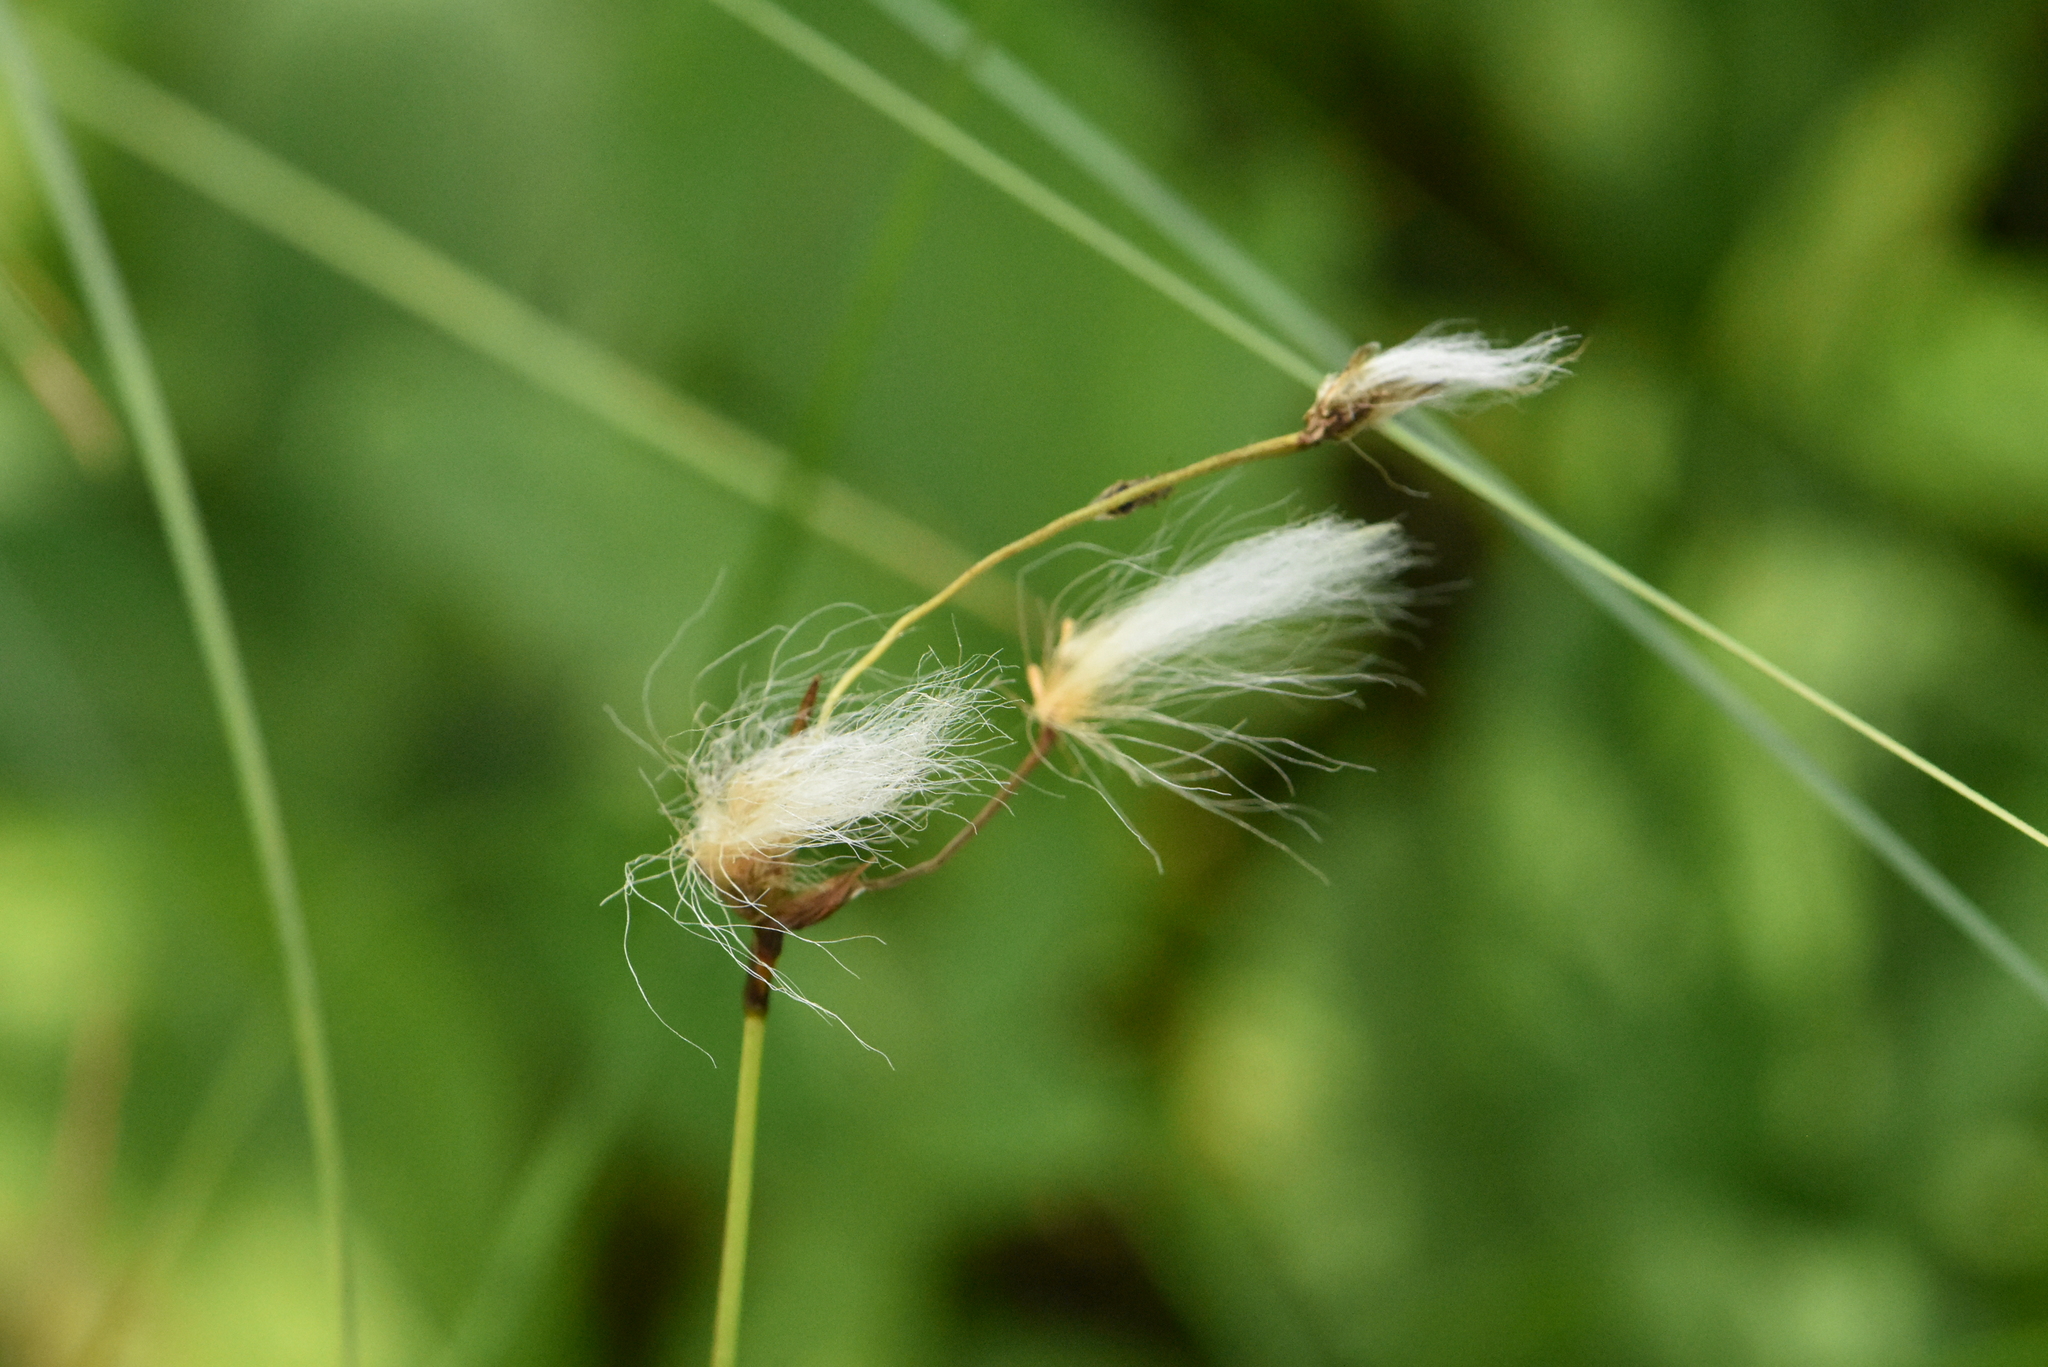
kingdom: Plantae
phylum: Tracheophyta
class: Liliopsida
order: Poales
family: Cyperaceae
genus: Eriophorum
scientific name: Eriophorum angustifolium
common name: Common cottongrass
